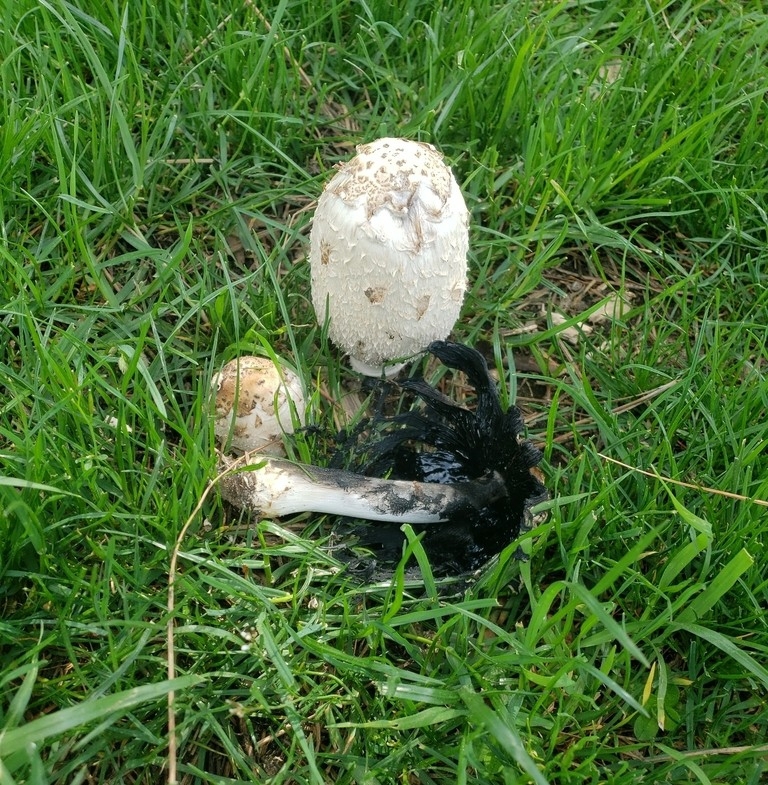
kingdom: Fungi
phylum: Basidiomycota
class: Agaricomycetes
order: Agaricales
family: Agaricaceae
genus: Coprinus
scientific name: Coprinus comatus
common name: Lawyer's wig
